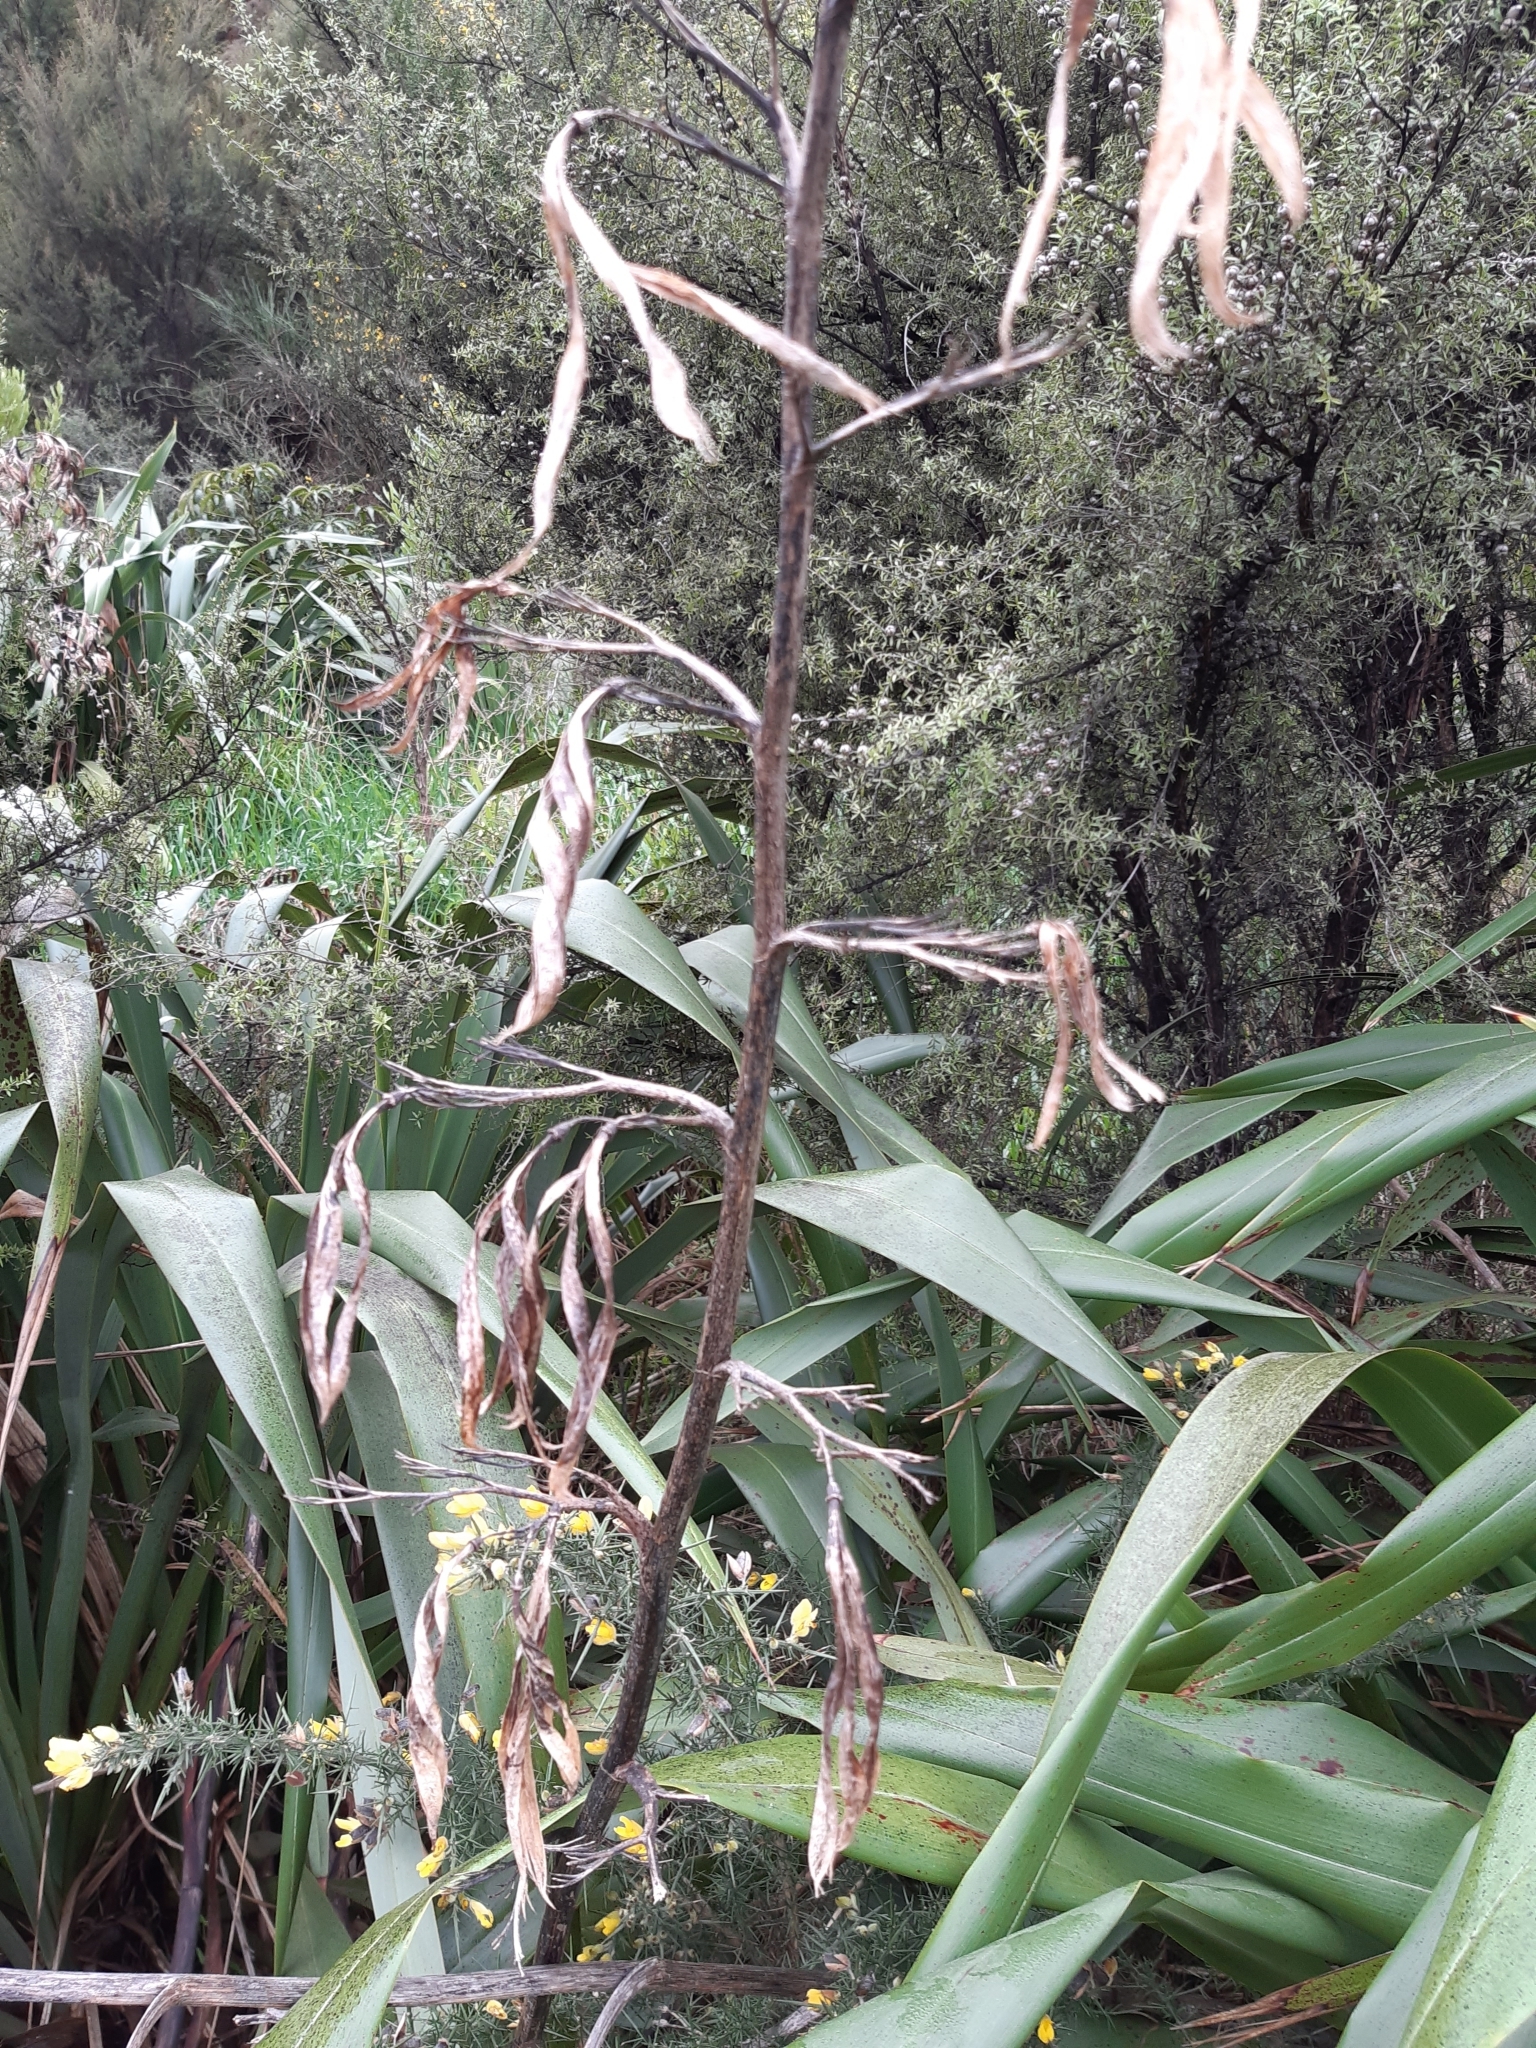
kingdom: Plantae
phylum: Tracheophyta
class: Liliopsida
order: Asparagales
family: Asphodelaceae
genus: Phormium
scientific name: Phormium colensoi
